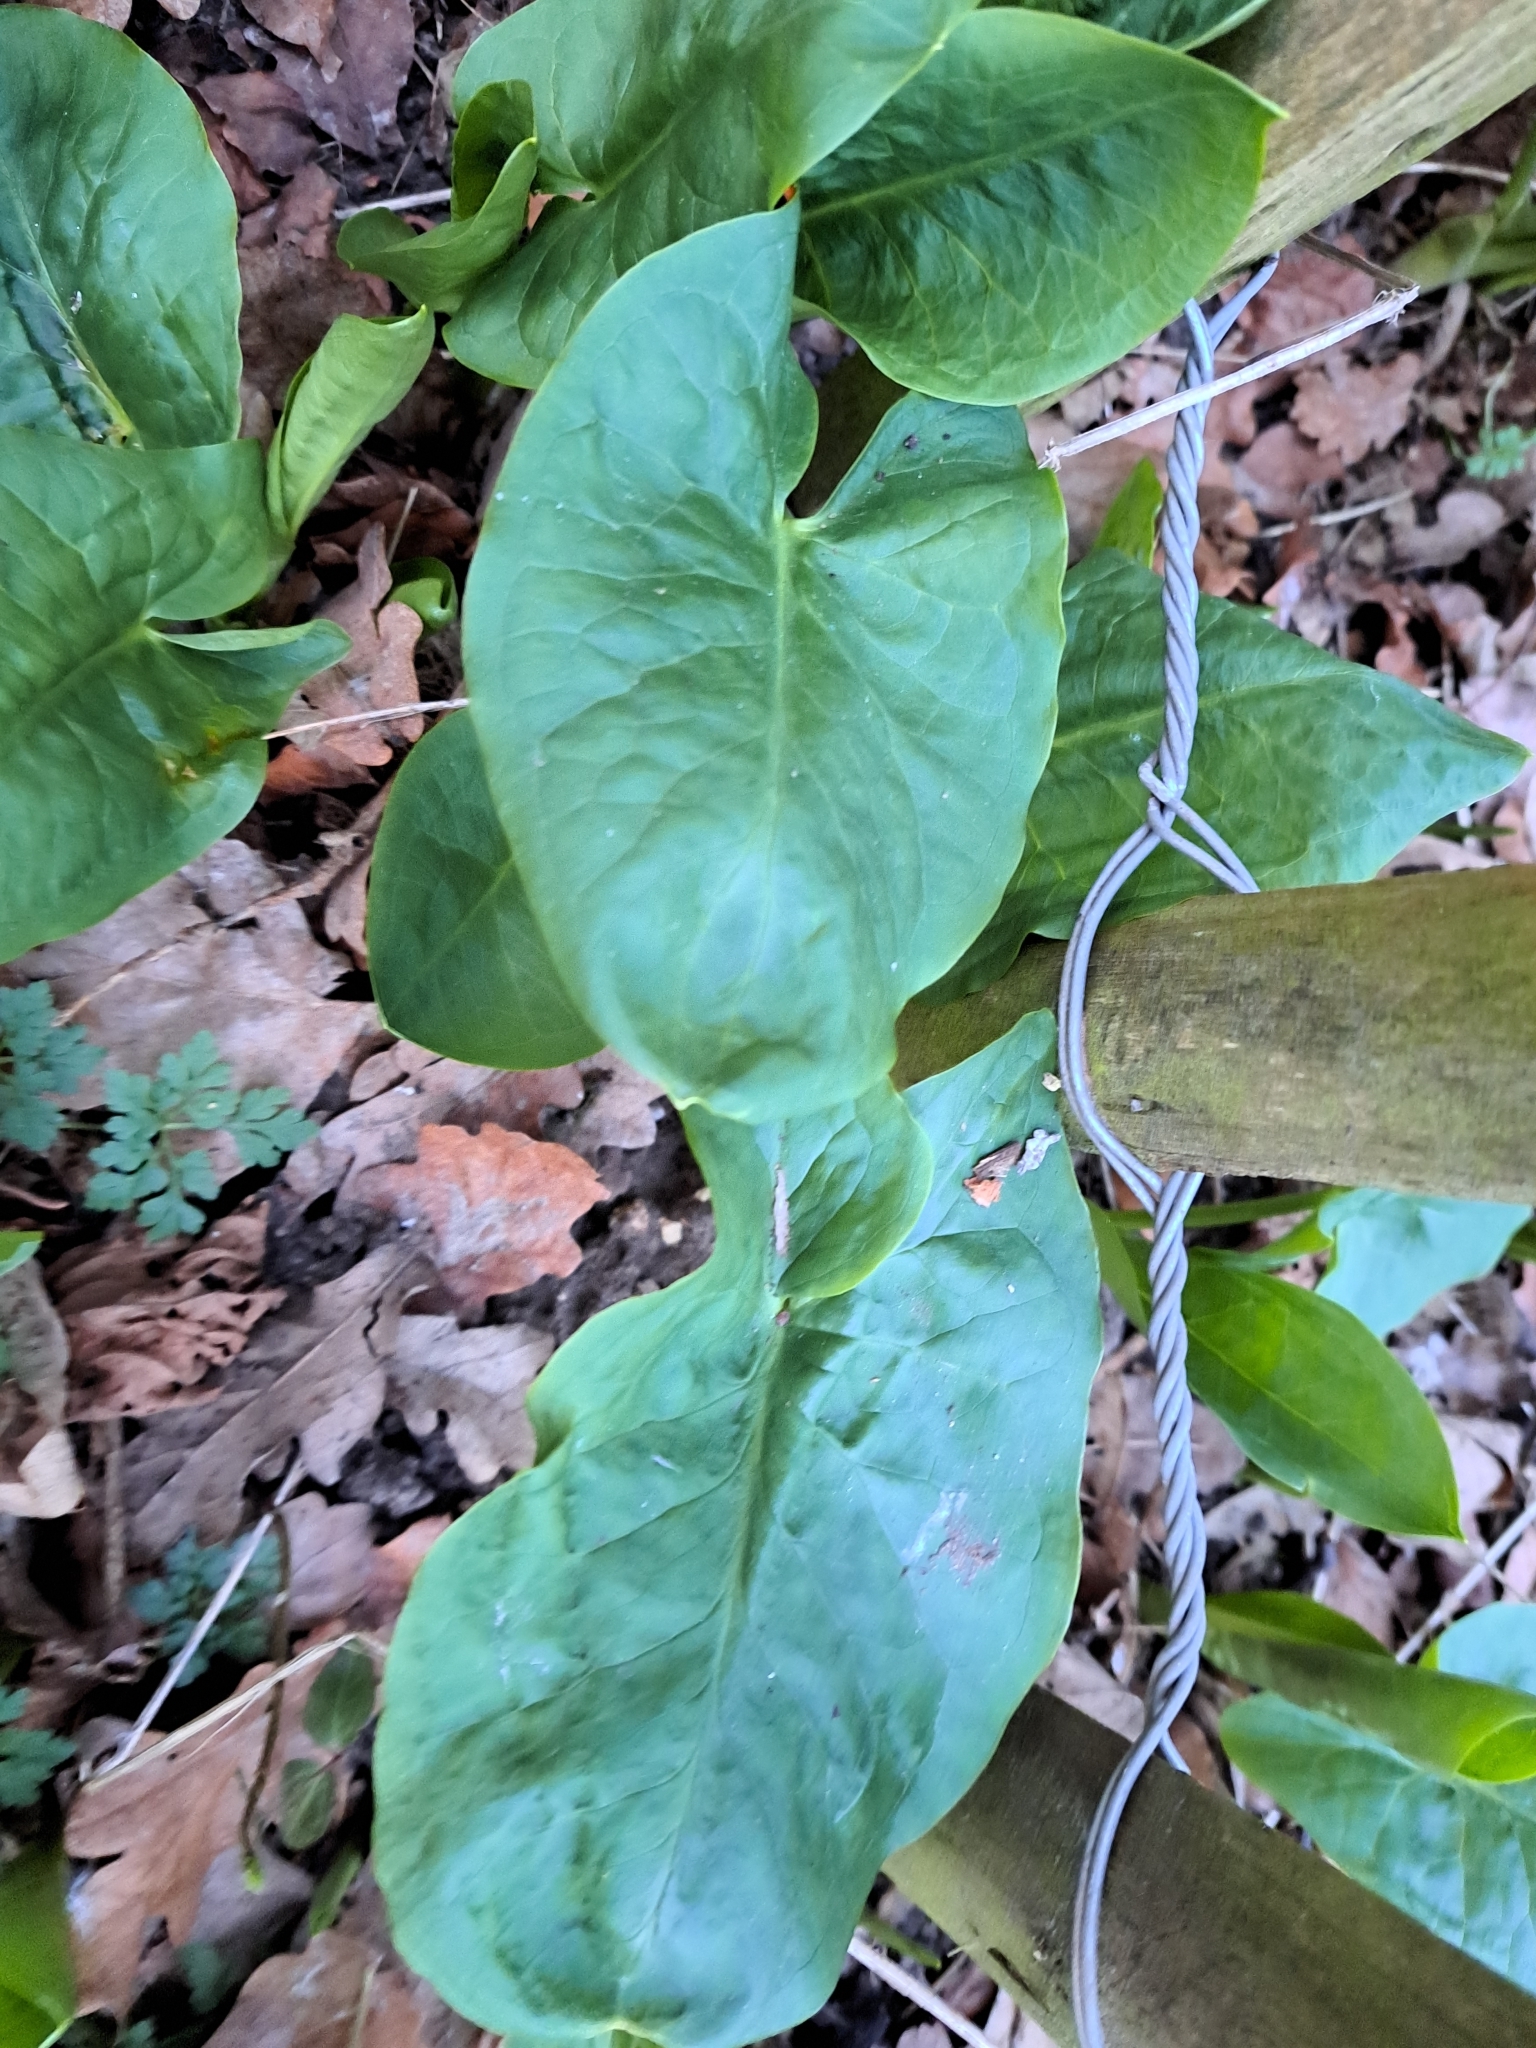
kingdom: Plantae
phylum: Tracheophyta
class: Liliopsida
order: Alismatales
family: Araceae
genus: Arum
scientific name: Arum maculatum
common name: Lords-and-ladies
